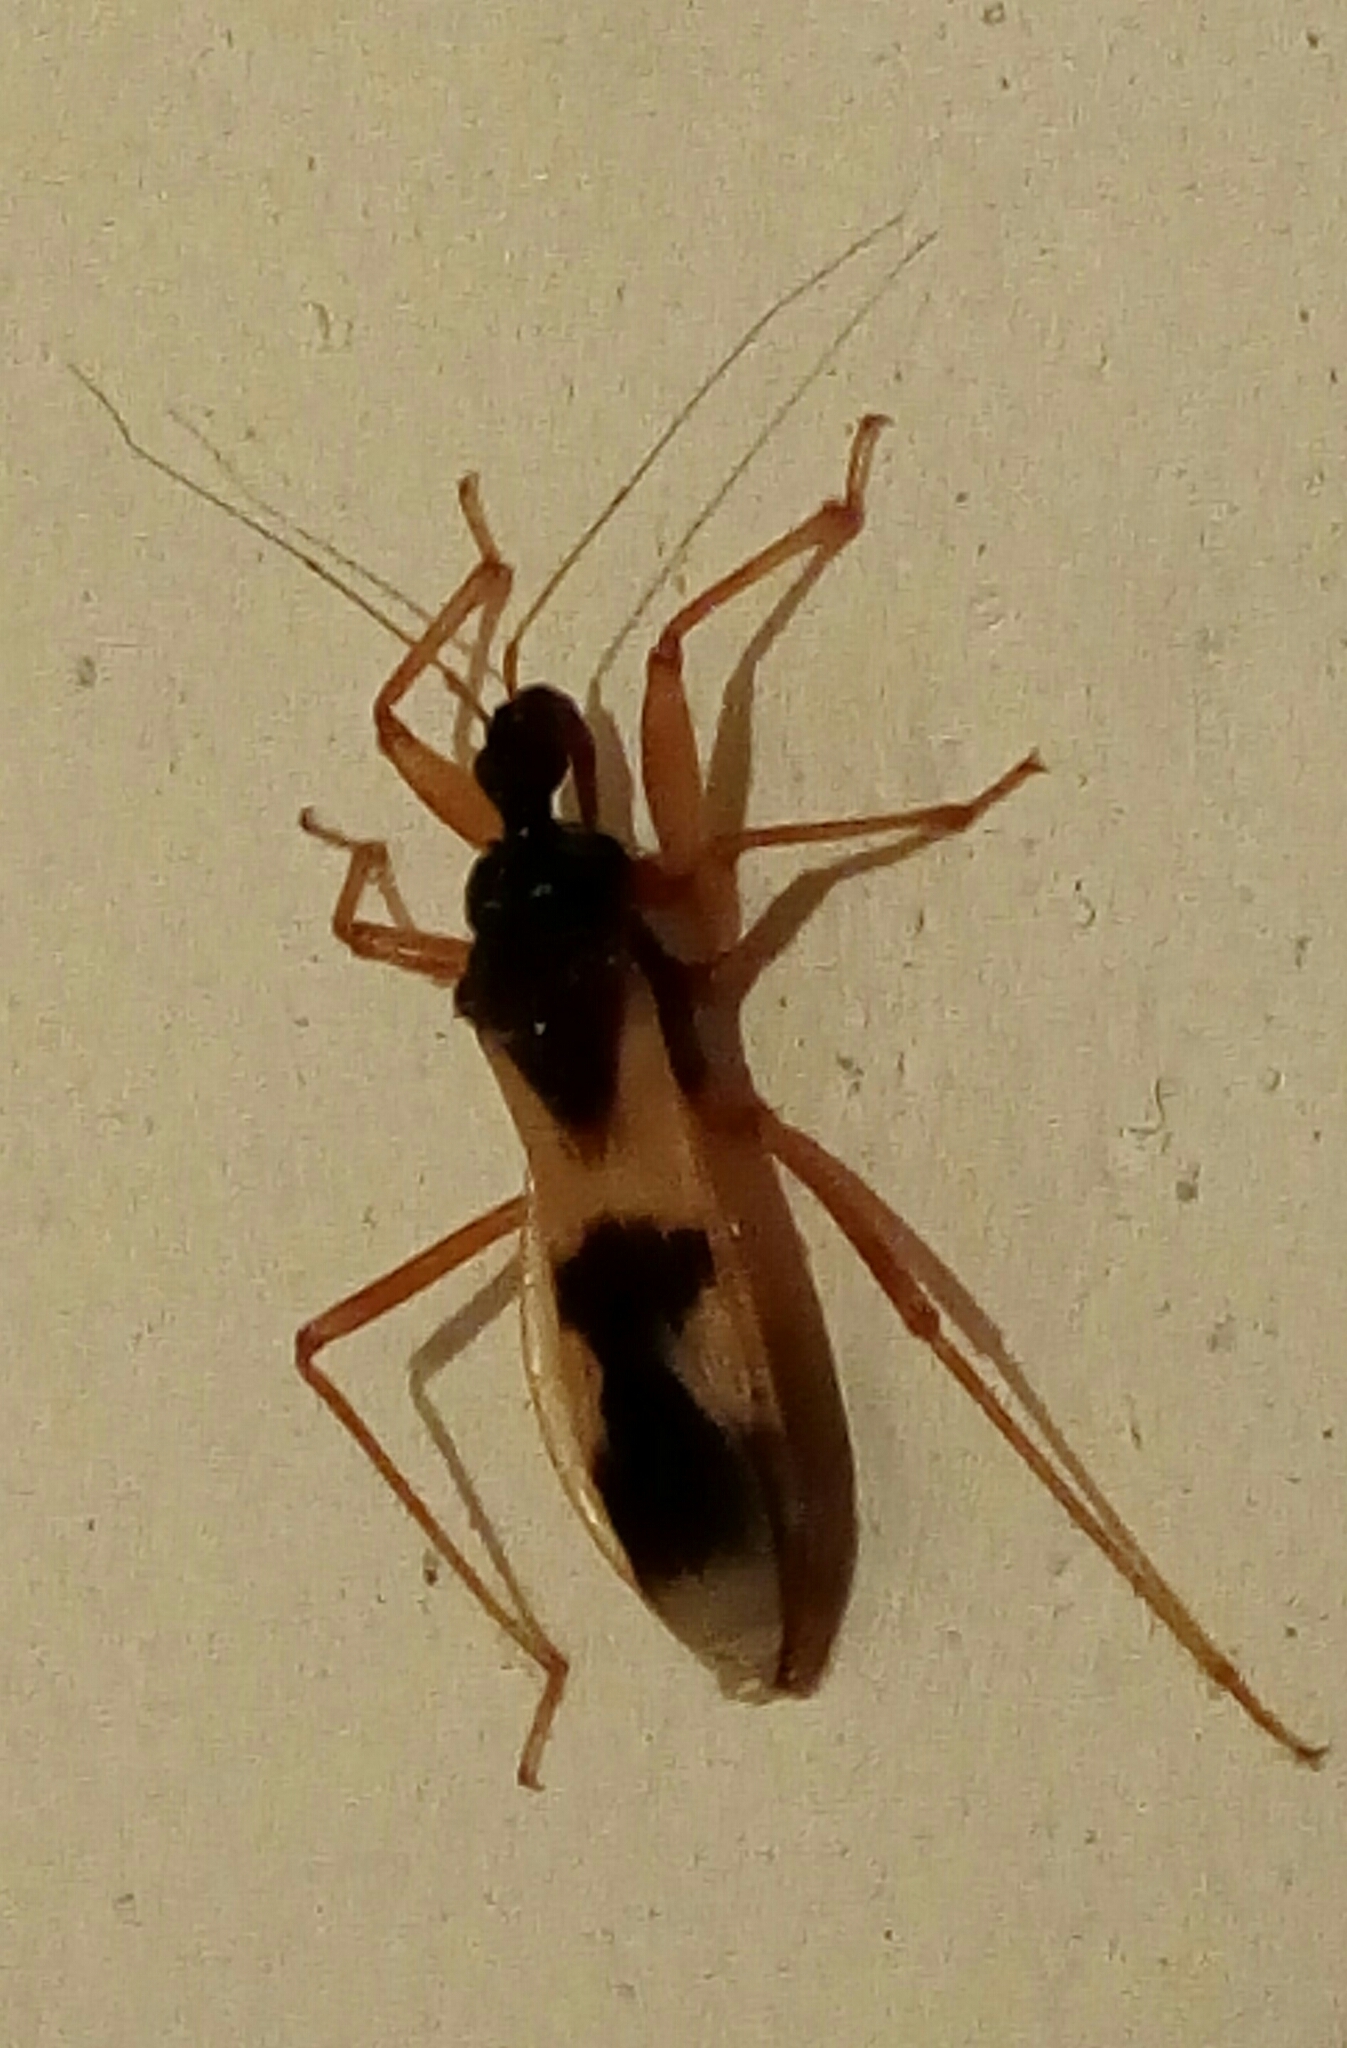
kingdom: Animalia
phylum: Arthropoda
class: Insecta
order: Hemiptera
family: Reduviidae
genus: Reduvius
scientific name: Reduvius pallipes
